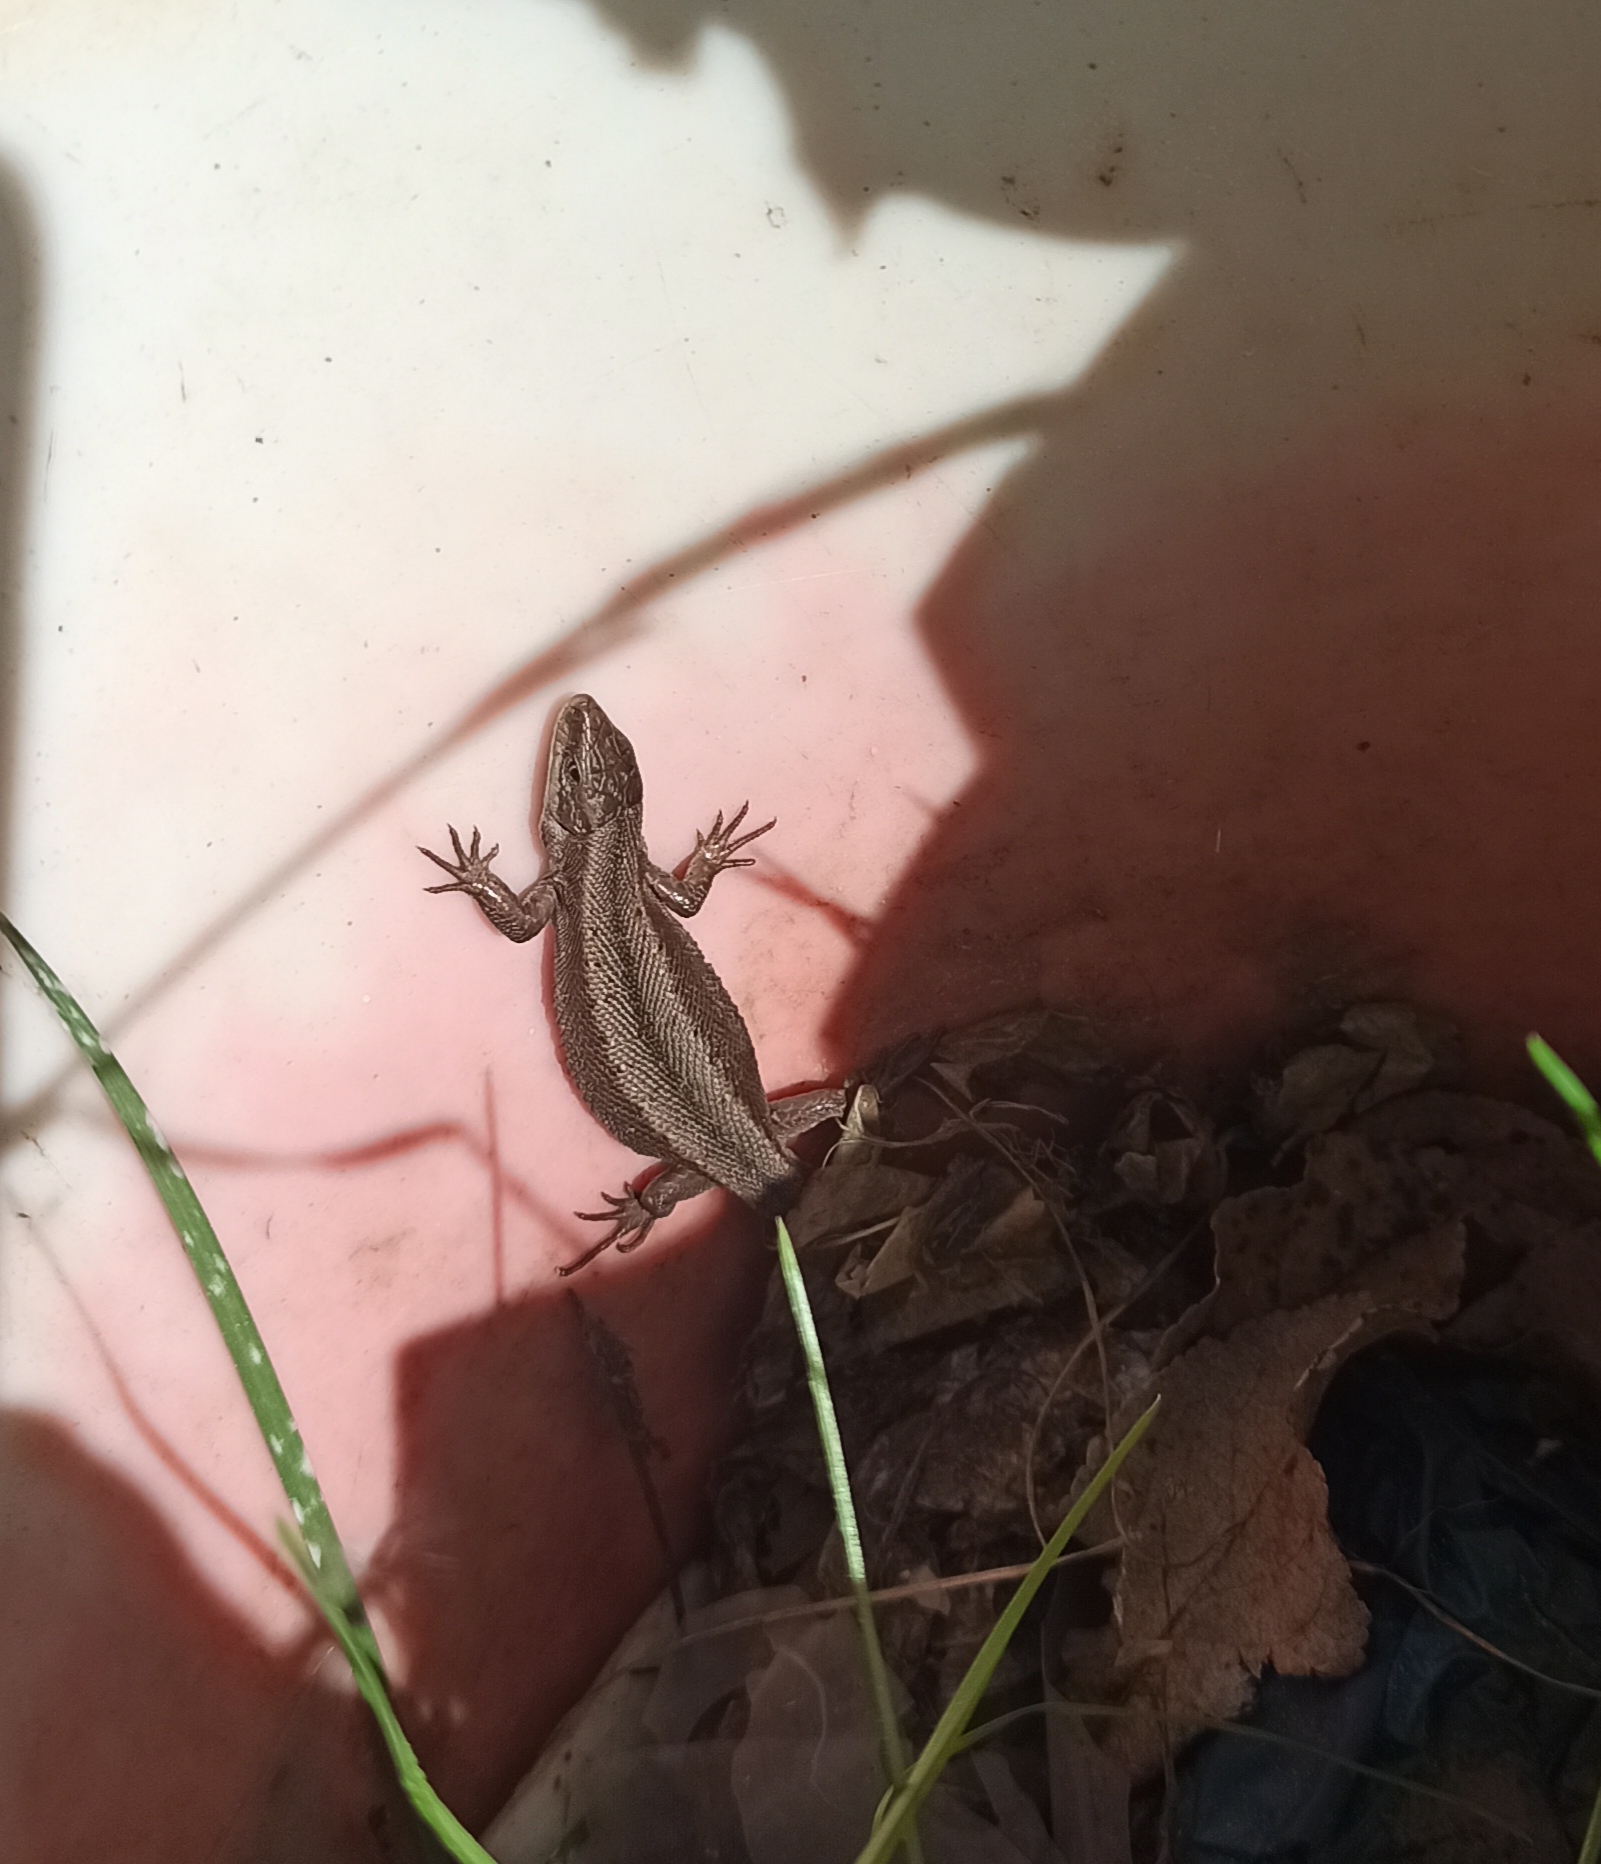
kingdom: Animalia
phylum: Chordata
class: Squamata
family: Lacertidae
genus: Zootoca
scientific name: Zootoca vivipara
